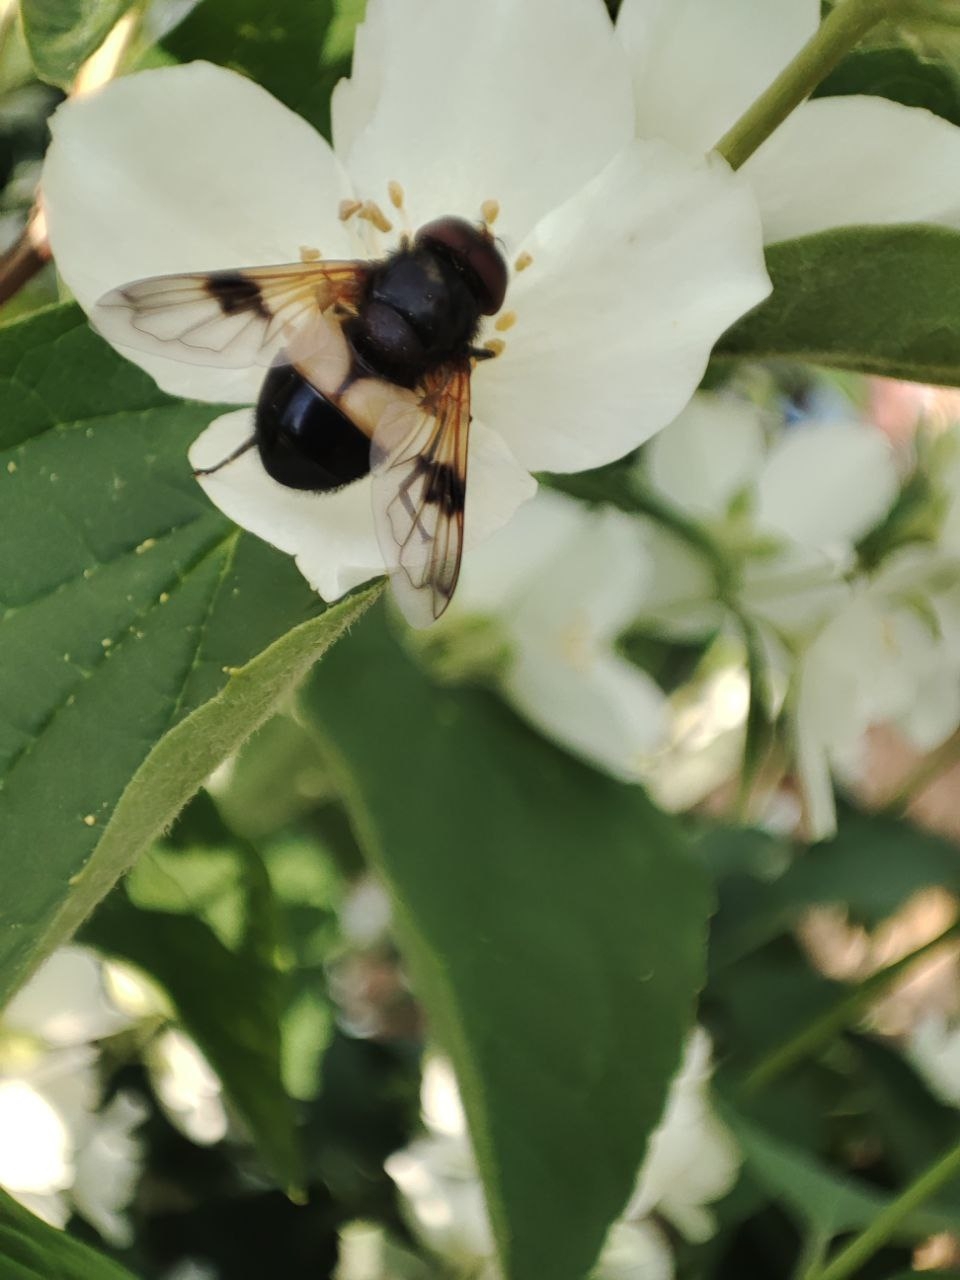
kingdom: Animalia
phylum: Arthropoda
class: Insecta
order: Diptera
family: Syrphidae
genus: Volucella
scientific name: Volucella pellucens
